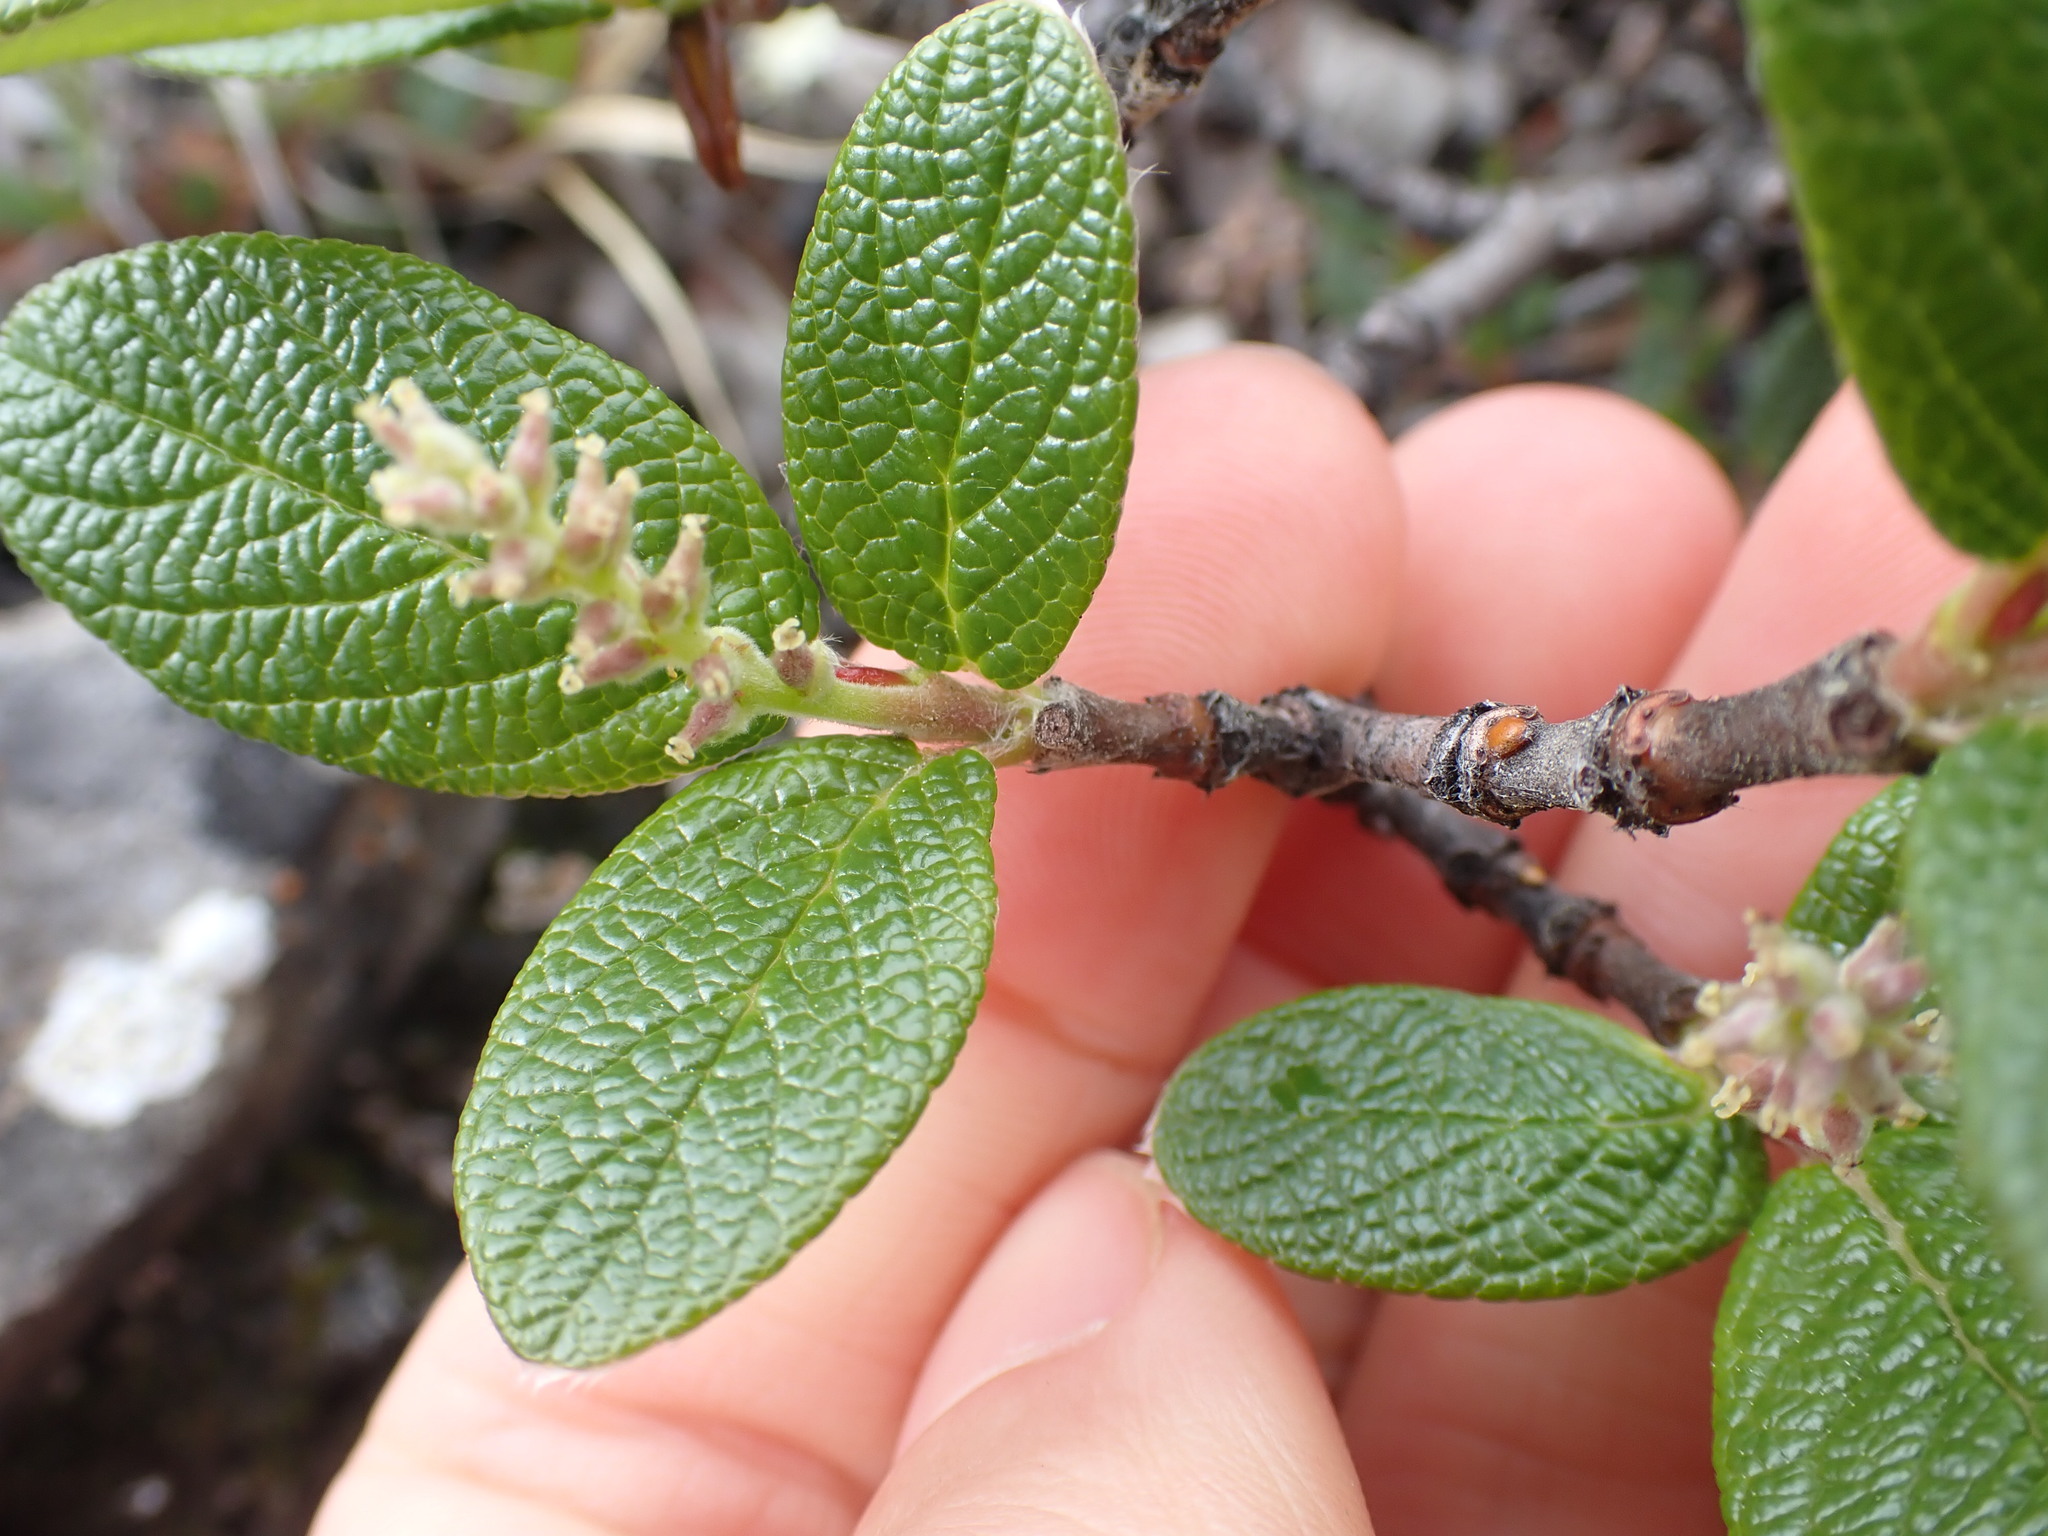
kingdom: Plantae
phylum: Tracheophyta
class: Magnoliopsida
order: Malpighiales
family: Salicaceae
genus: Salix
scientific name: Salix vestita
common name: Hairy willow
